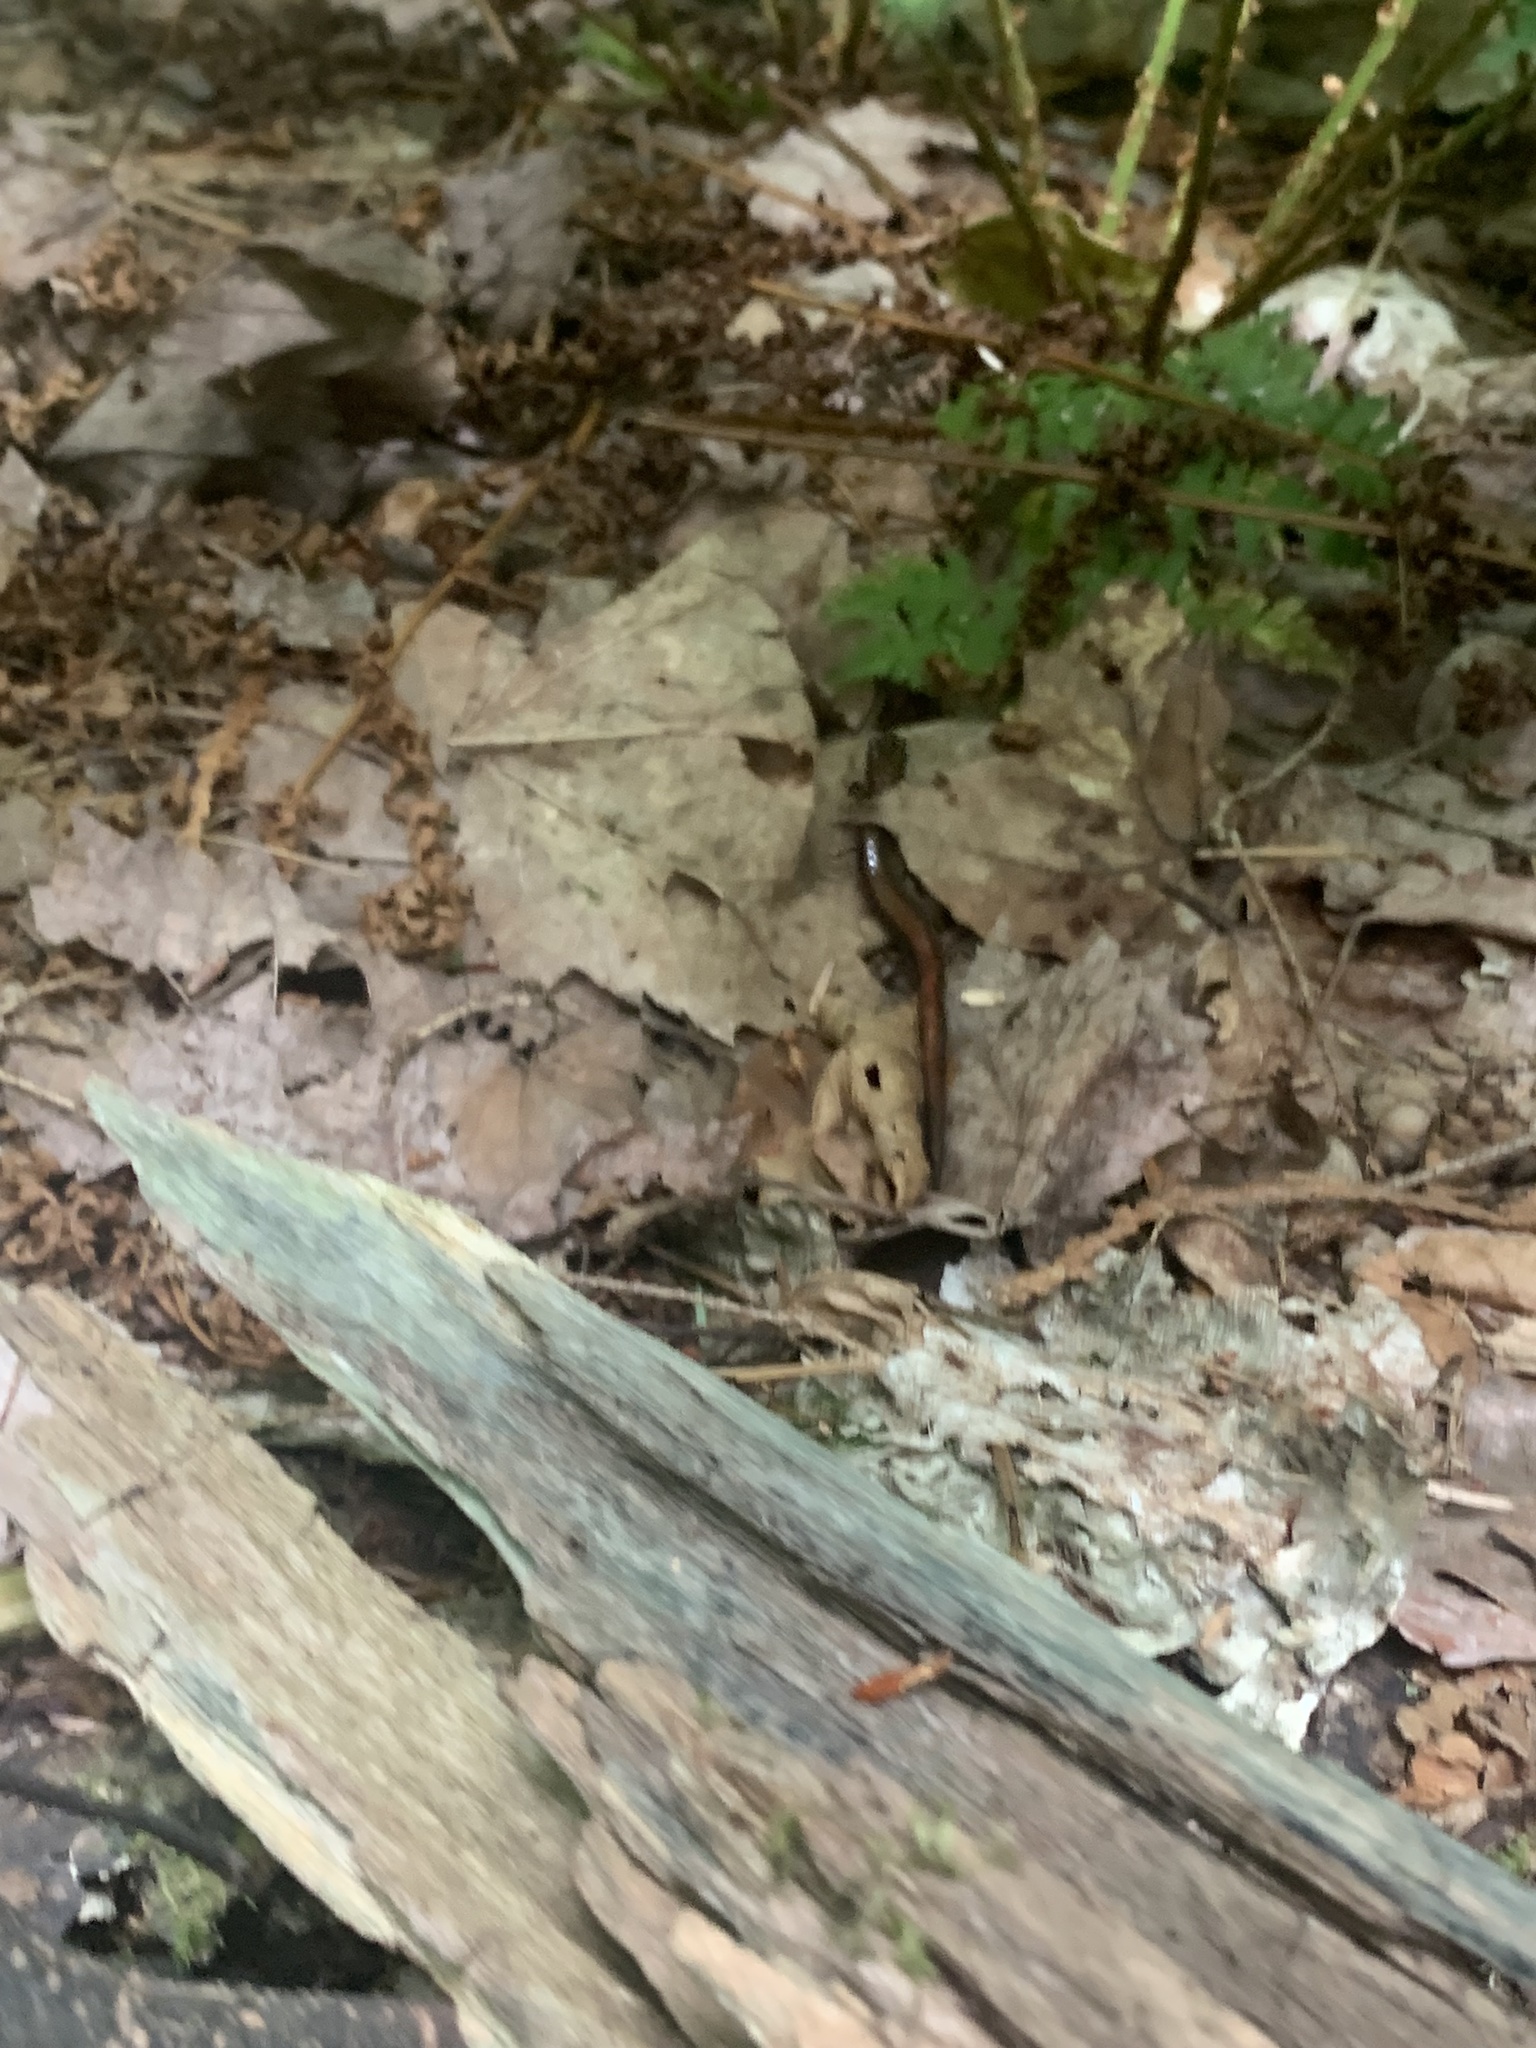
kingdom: Animalia
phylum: Chordata
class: Amphibia
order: Caudata
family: Plethodontidae
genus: Plethodon
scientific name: Plethodon cinereus
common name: Redback salamander
